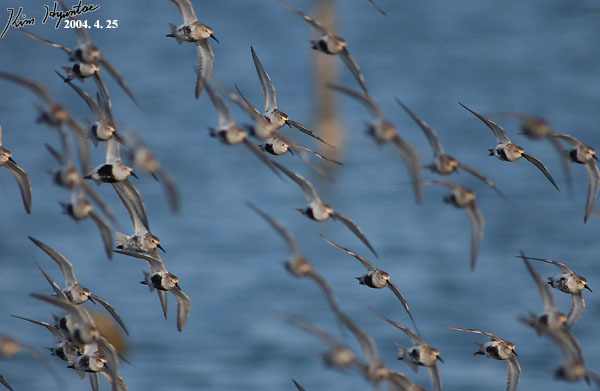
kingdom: Animalia
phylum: Chordata
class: Aves
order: Charadriiformes
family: Scolopacidae
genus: Calidris
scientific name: Calidris alpina
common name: Dunlin
